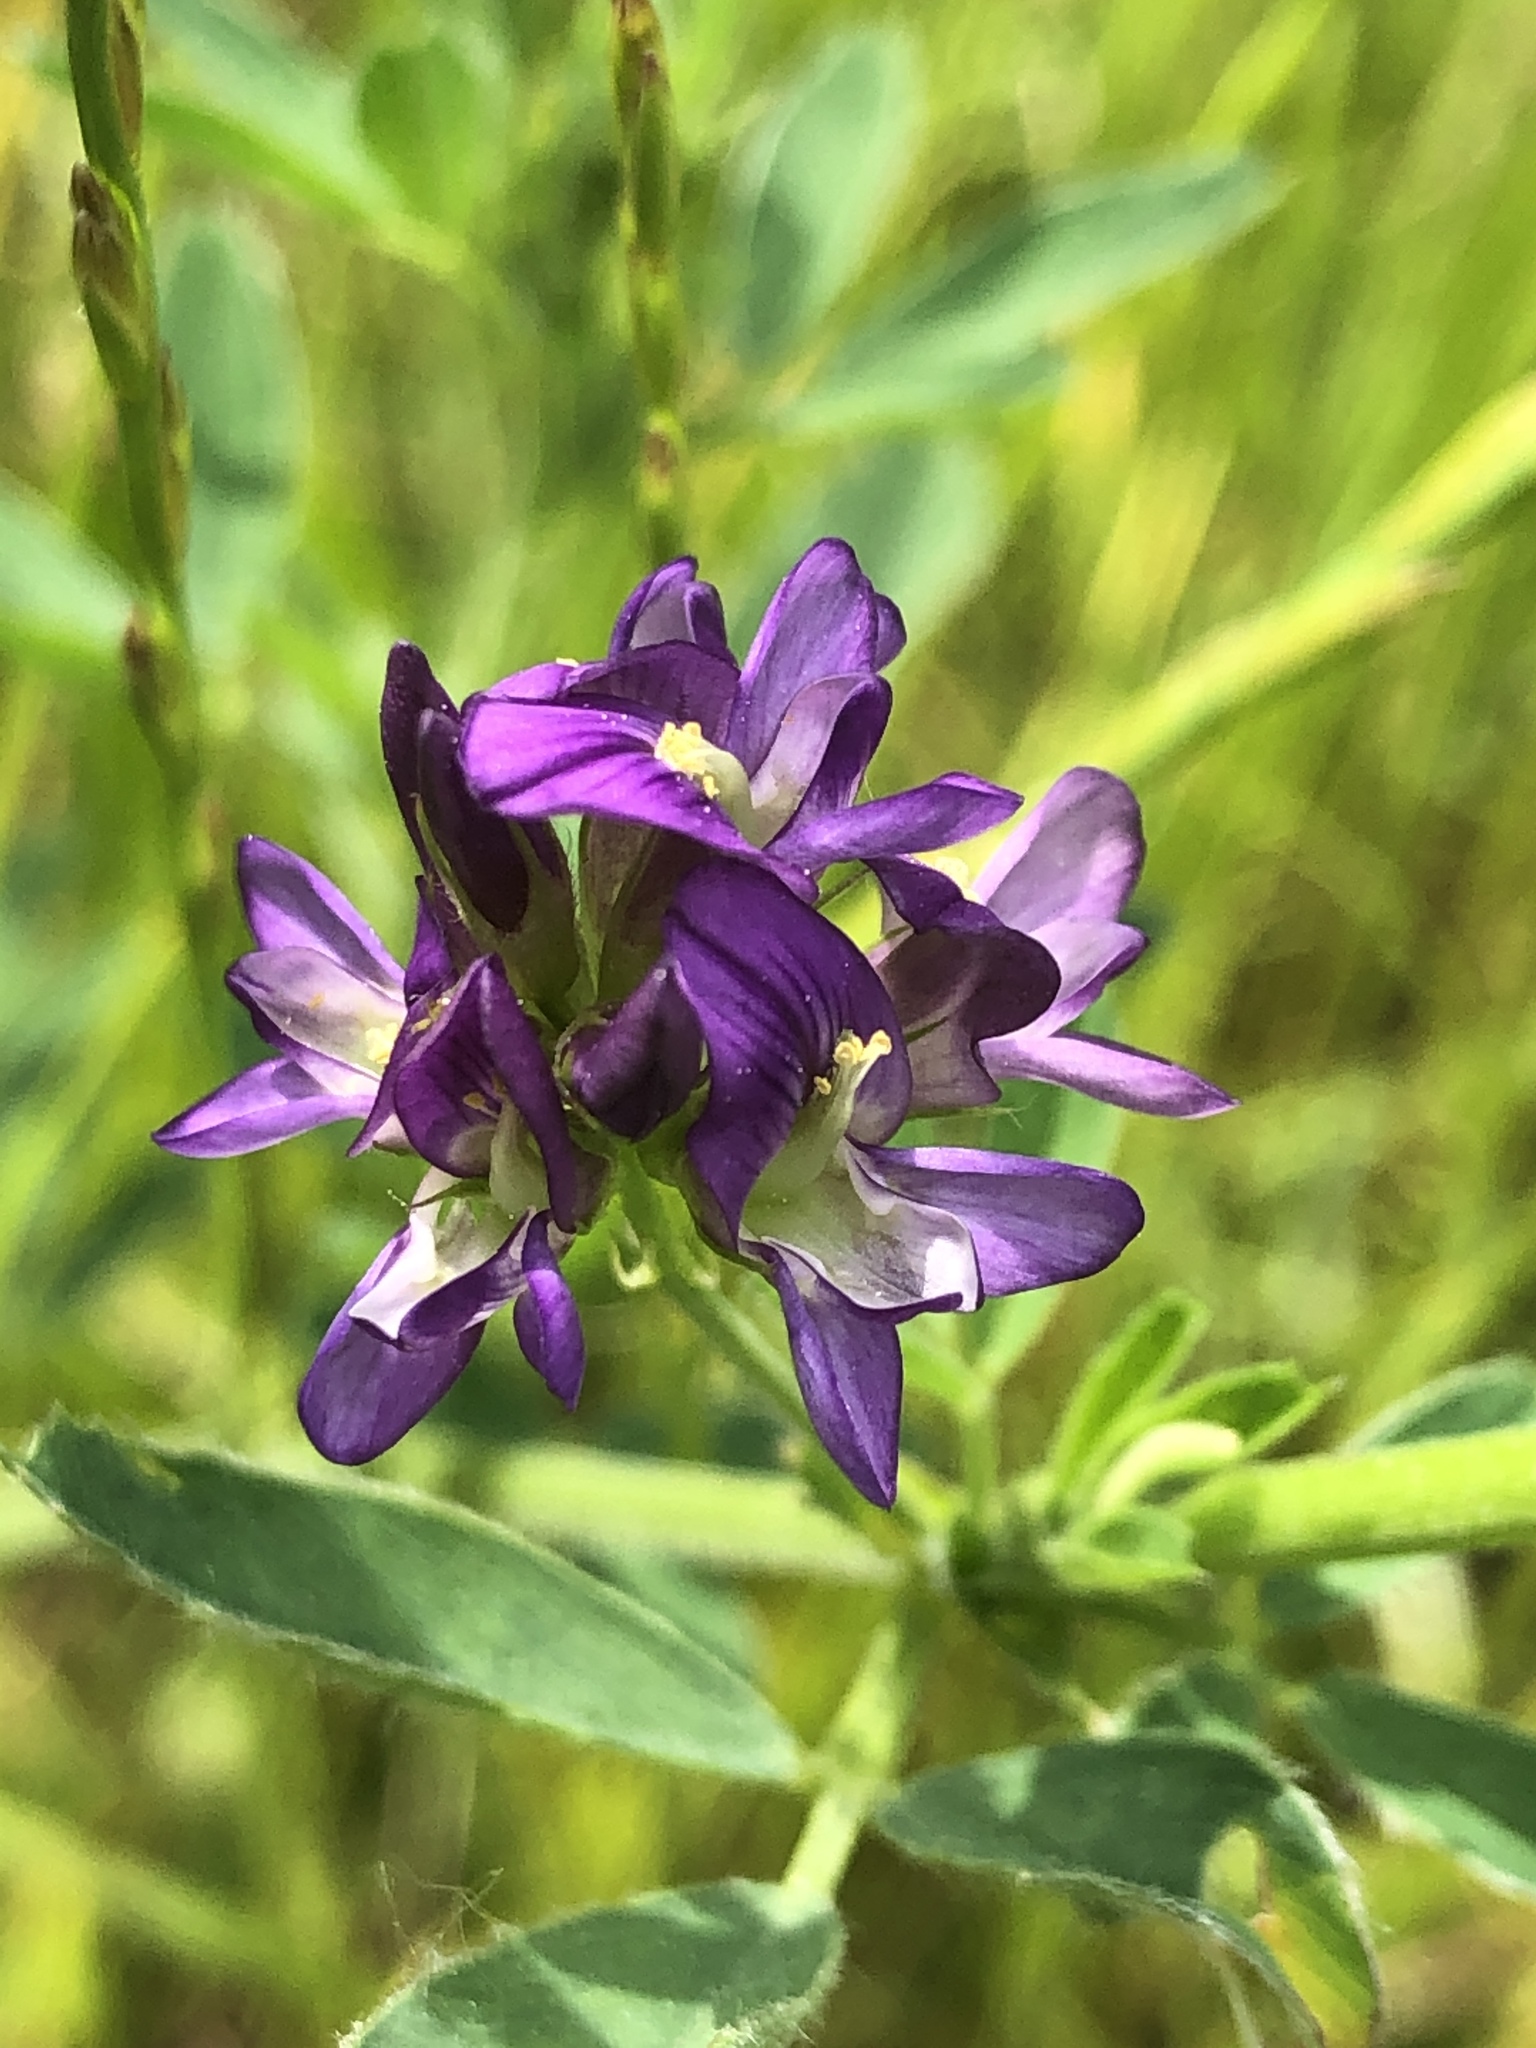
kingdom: Plantae
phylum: Tracheophyta
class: Magnoliopsida
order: Fabales
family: Fabaceae
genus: Medicago
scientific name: Medicago sativa
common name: Alfalfa
